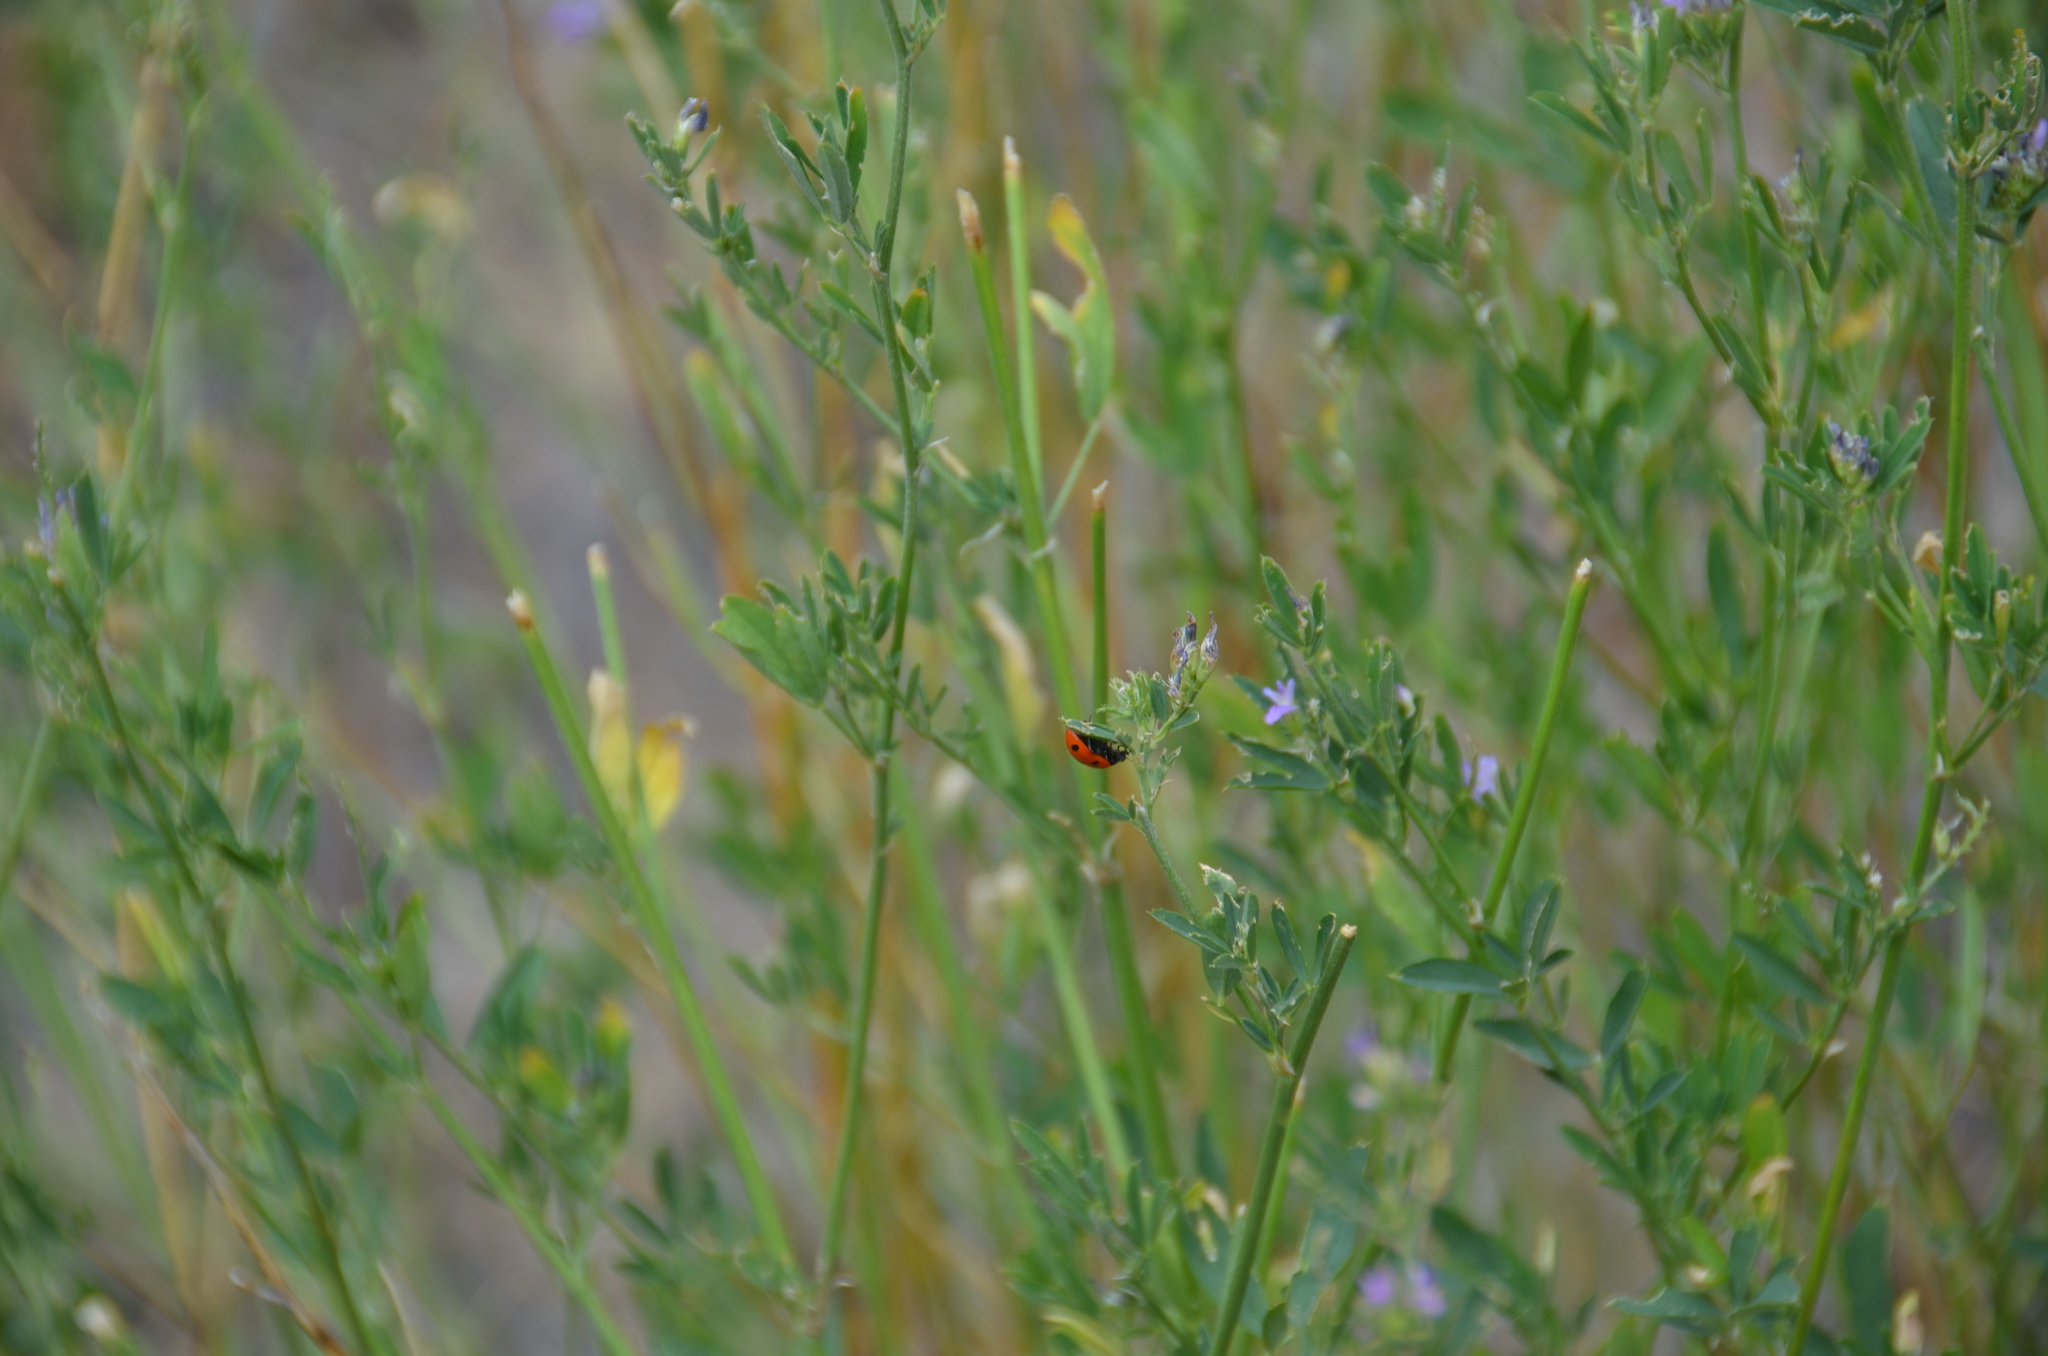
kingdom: Animalia
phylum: Arthropoda
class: Insecta
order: Coleoptera
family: Coccinellidae
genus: Coccinella
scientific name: Coccinella septempunctata
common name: Sevenspotted lady beetle
